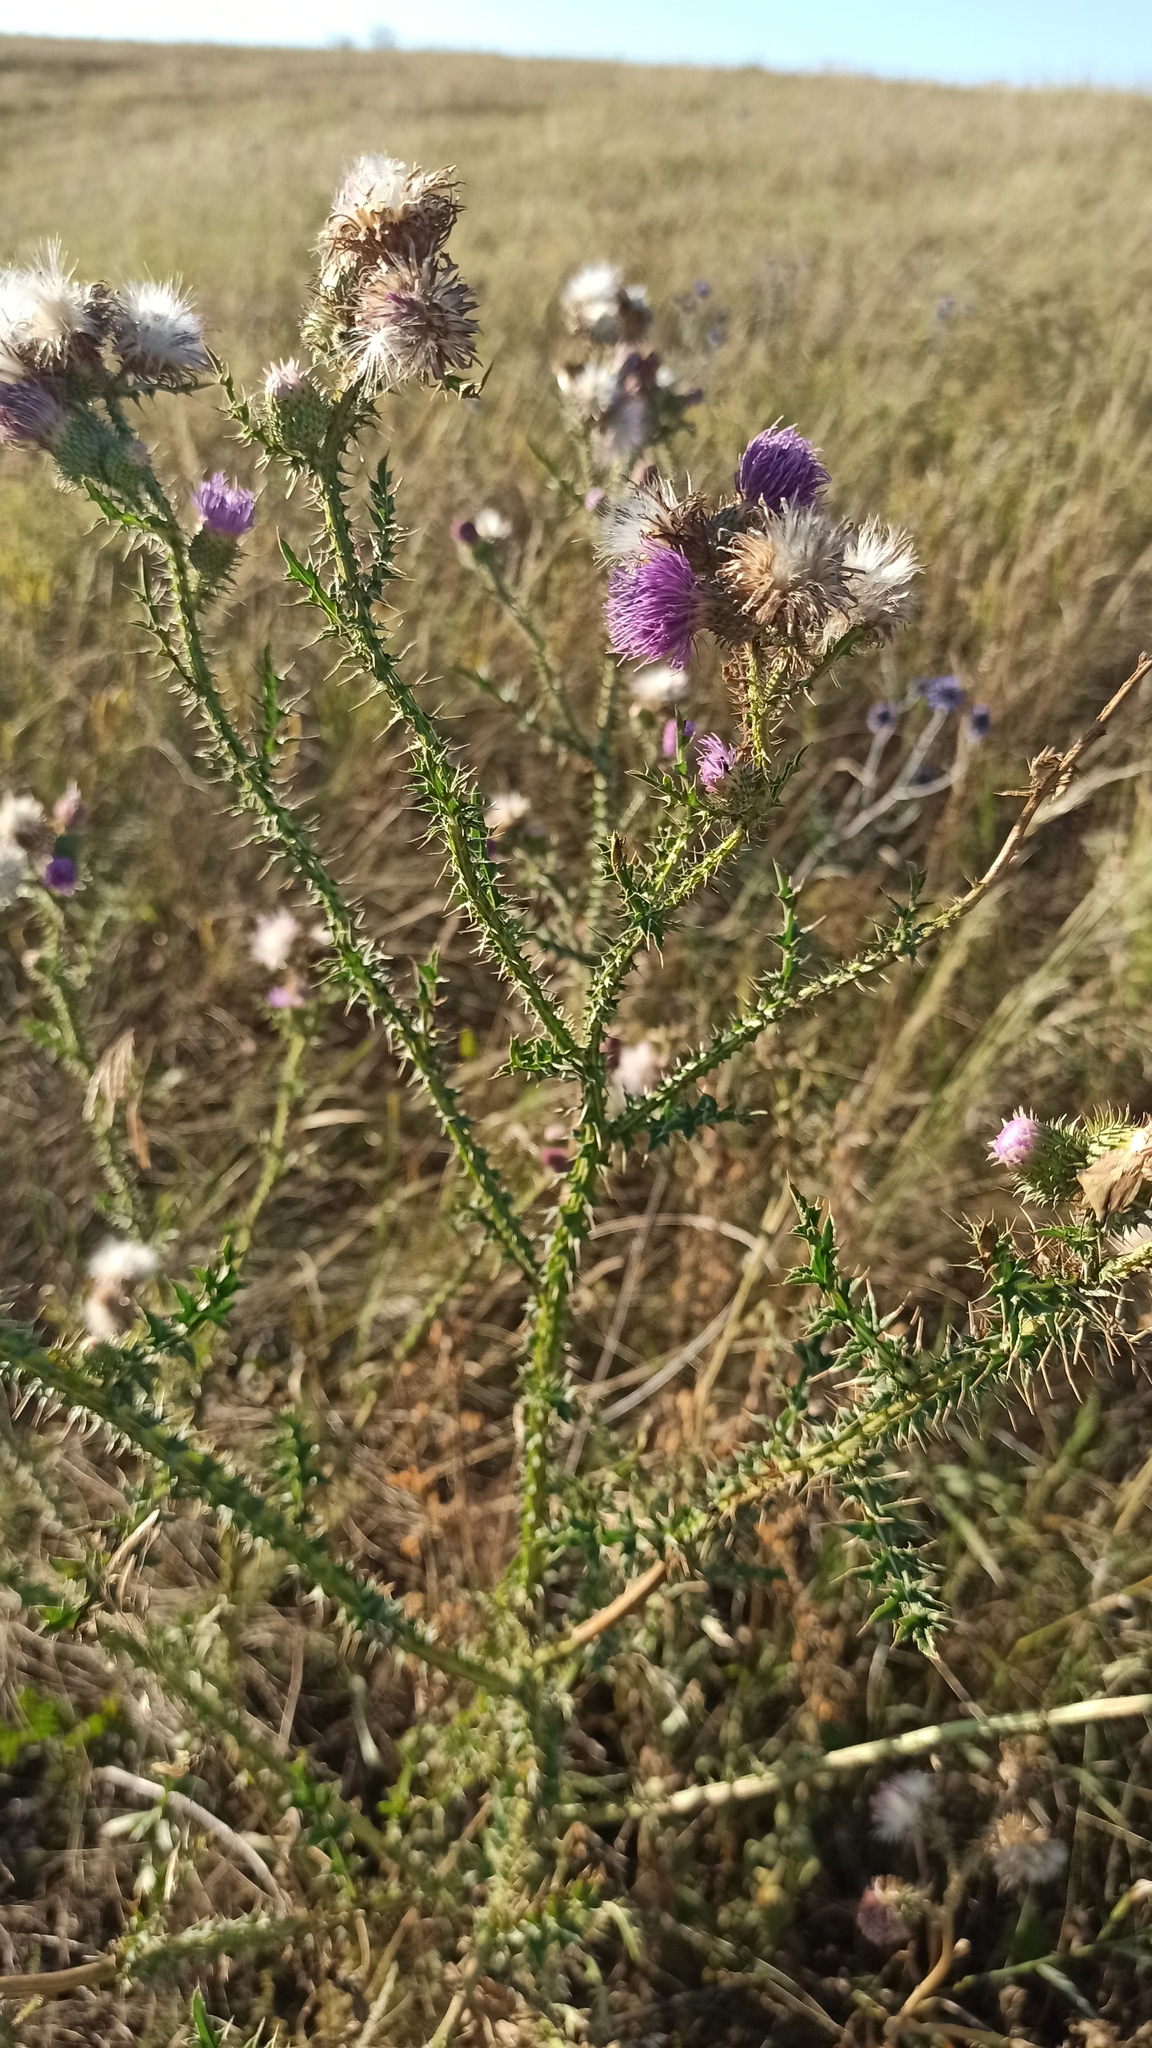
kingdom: Plantae
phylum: Tracheophyta
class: Magnoliopsida
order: Asterales
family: Asteraceae
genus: Carduus
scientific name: Carduus acanthoides
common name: Plumeless thistle
